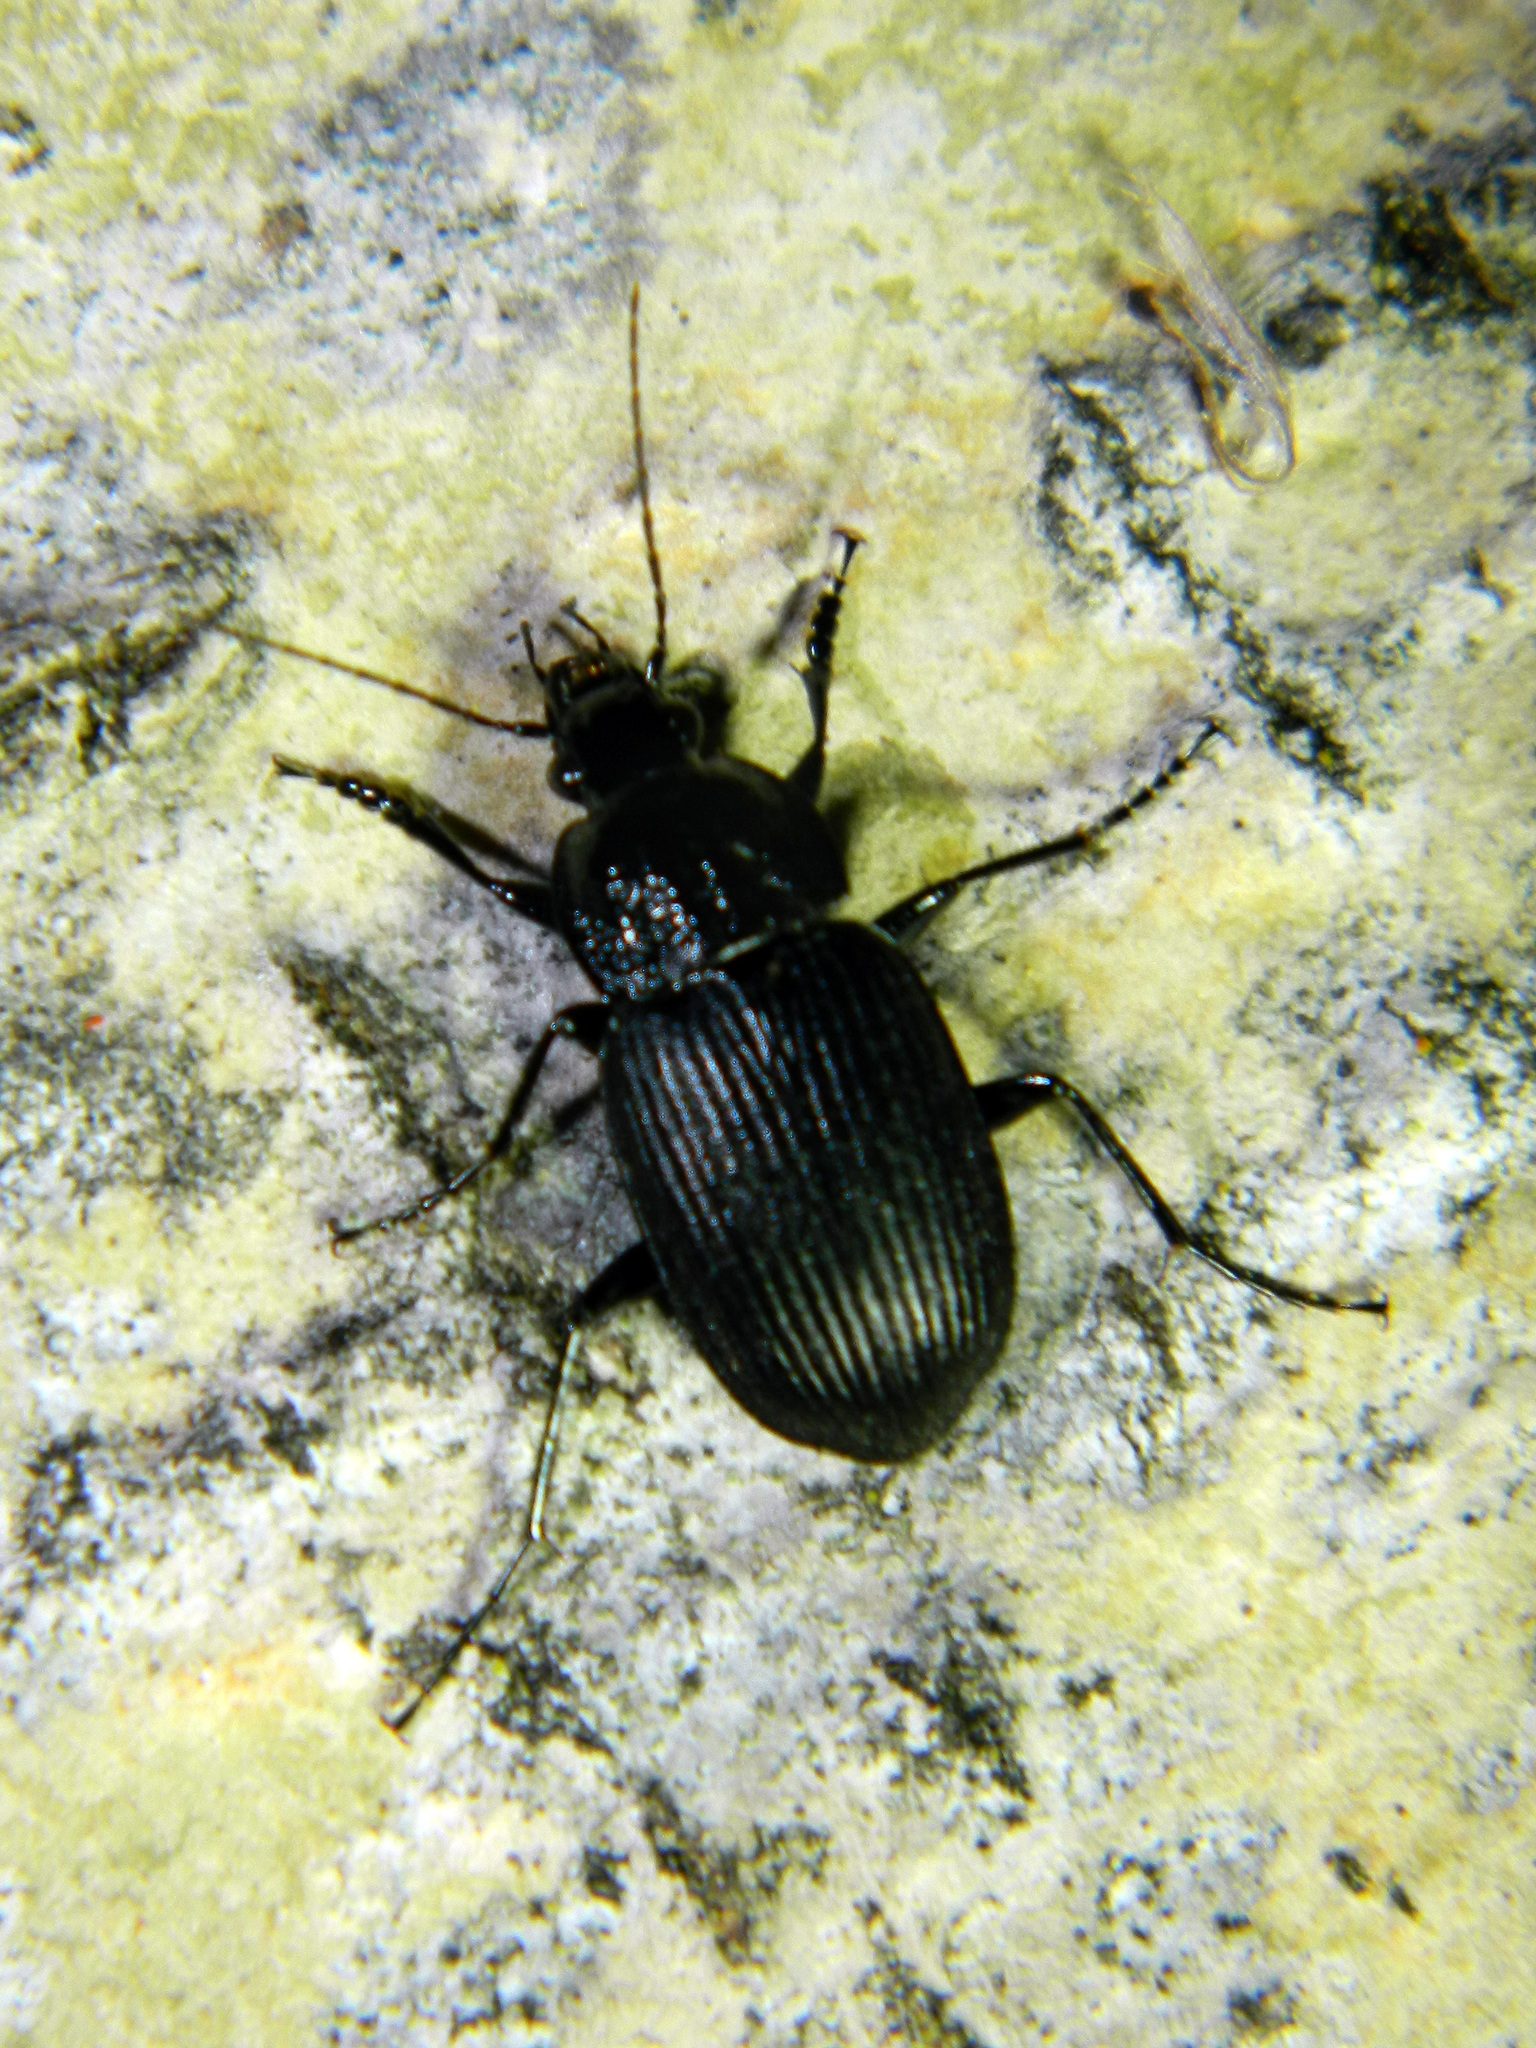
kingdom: Animalia
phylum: Arthropoda
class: Insecta
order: Coleoptera
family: Carabidae
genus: Chlaenius
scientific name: Chlaenius niger
